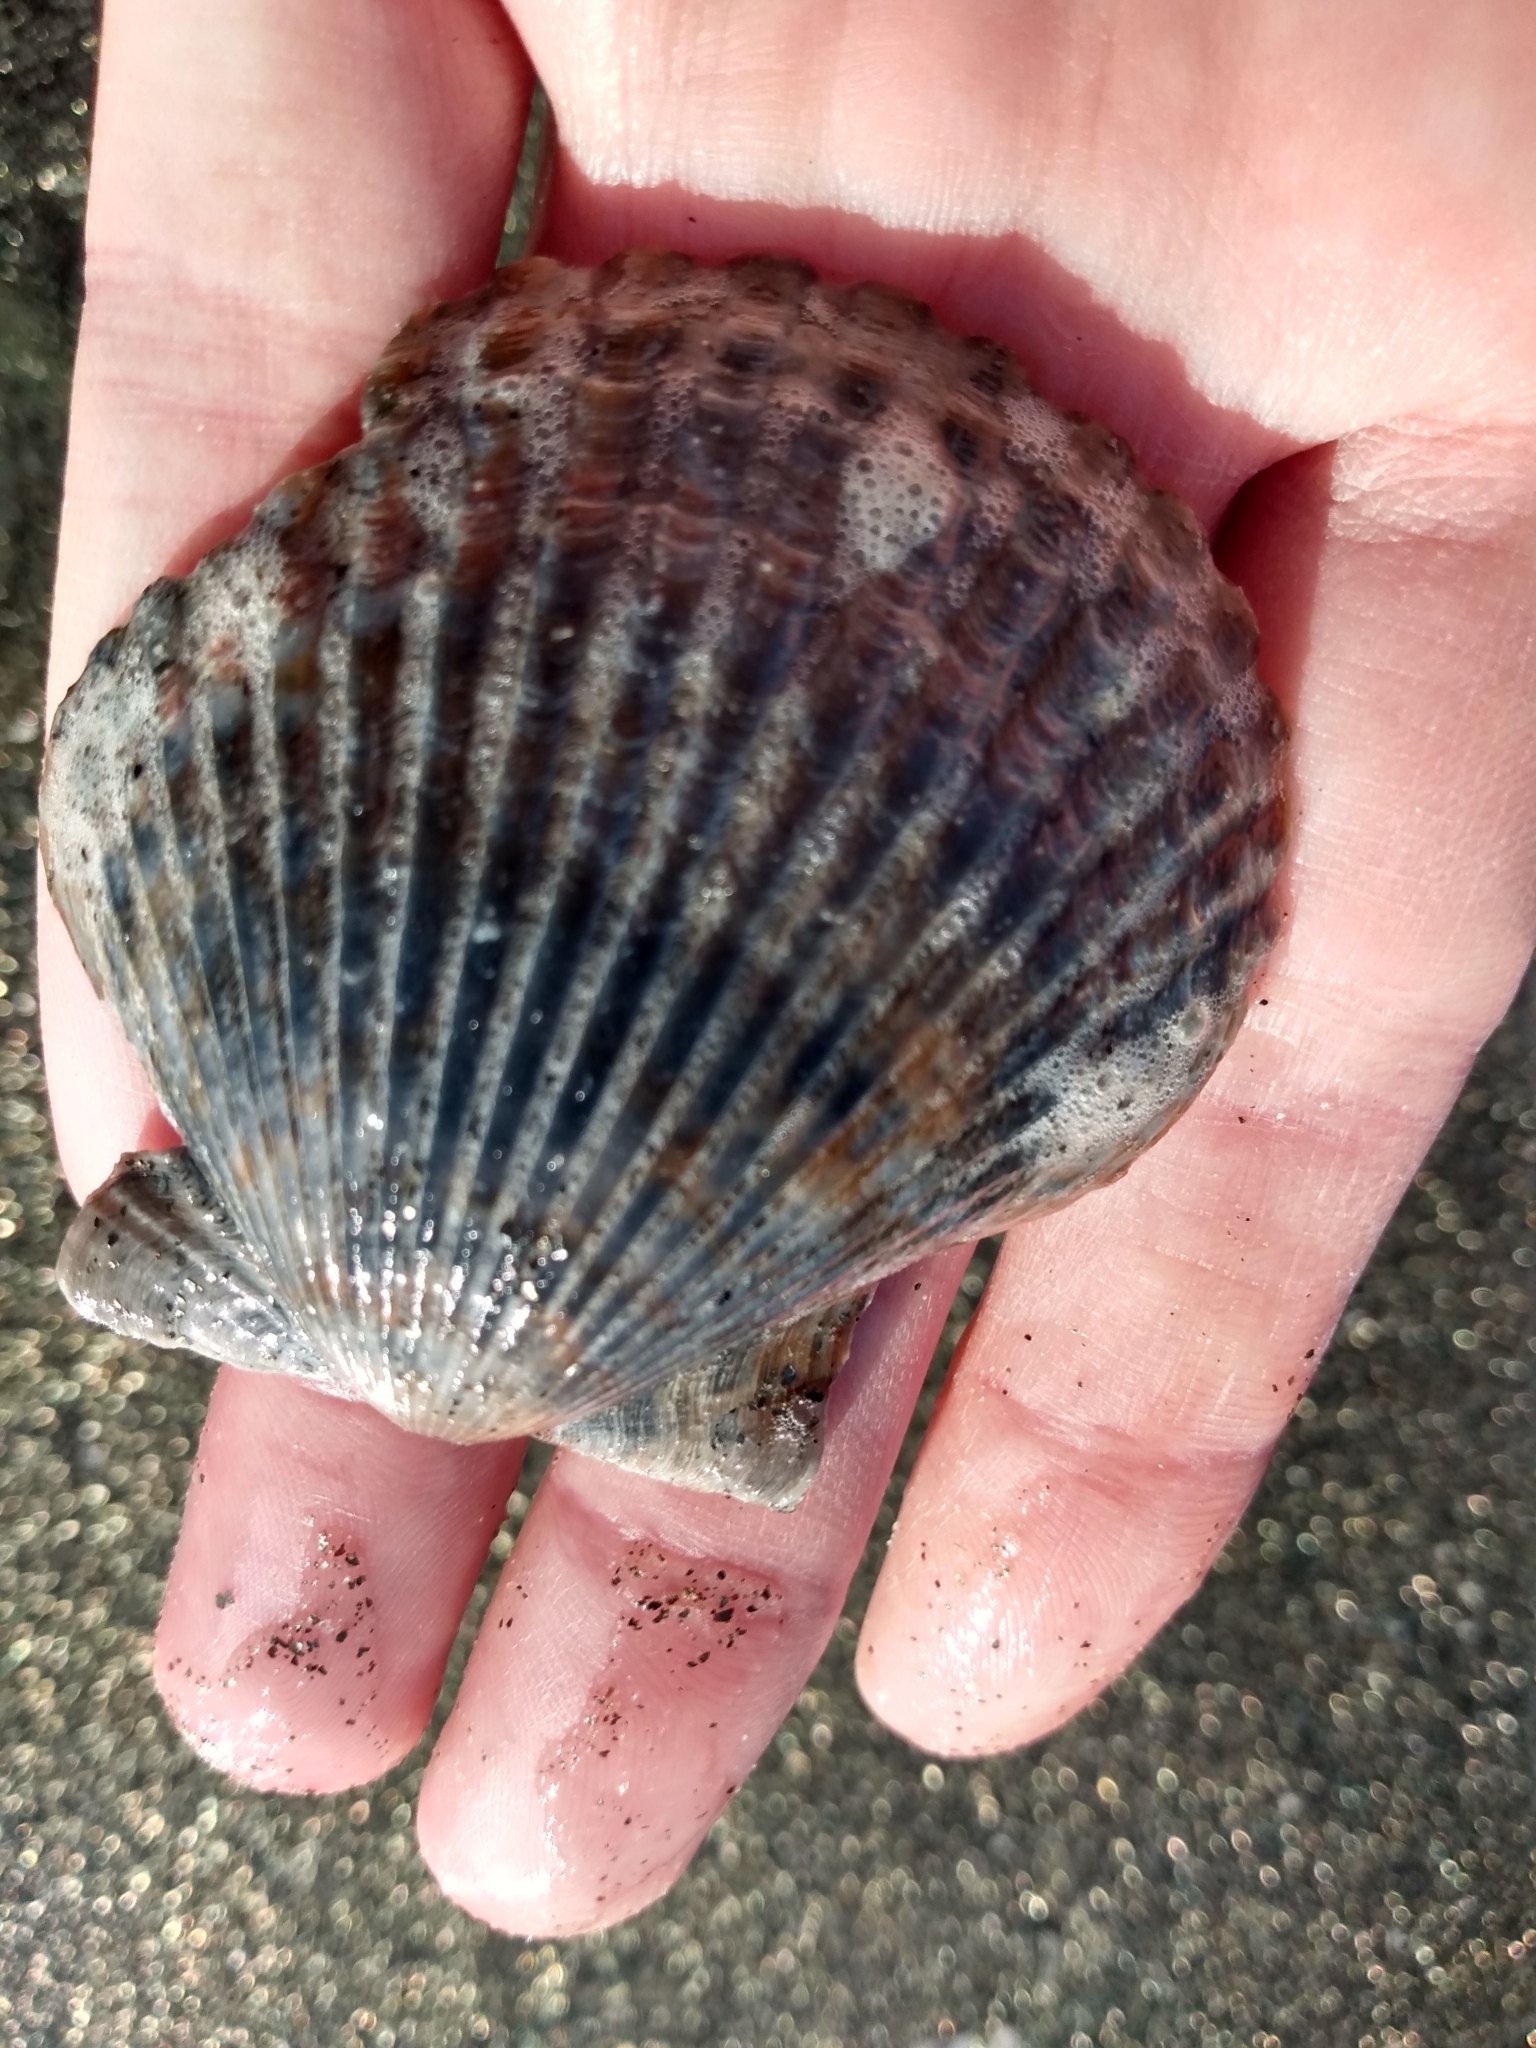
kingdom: Animalia
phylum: Mollusca
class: Bivalvia
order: Pectinida
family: Pectinidae
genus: Argopecten
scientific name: Argopecten ventricosus
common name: Catarina scallop
